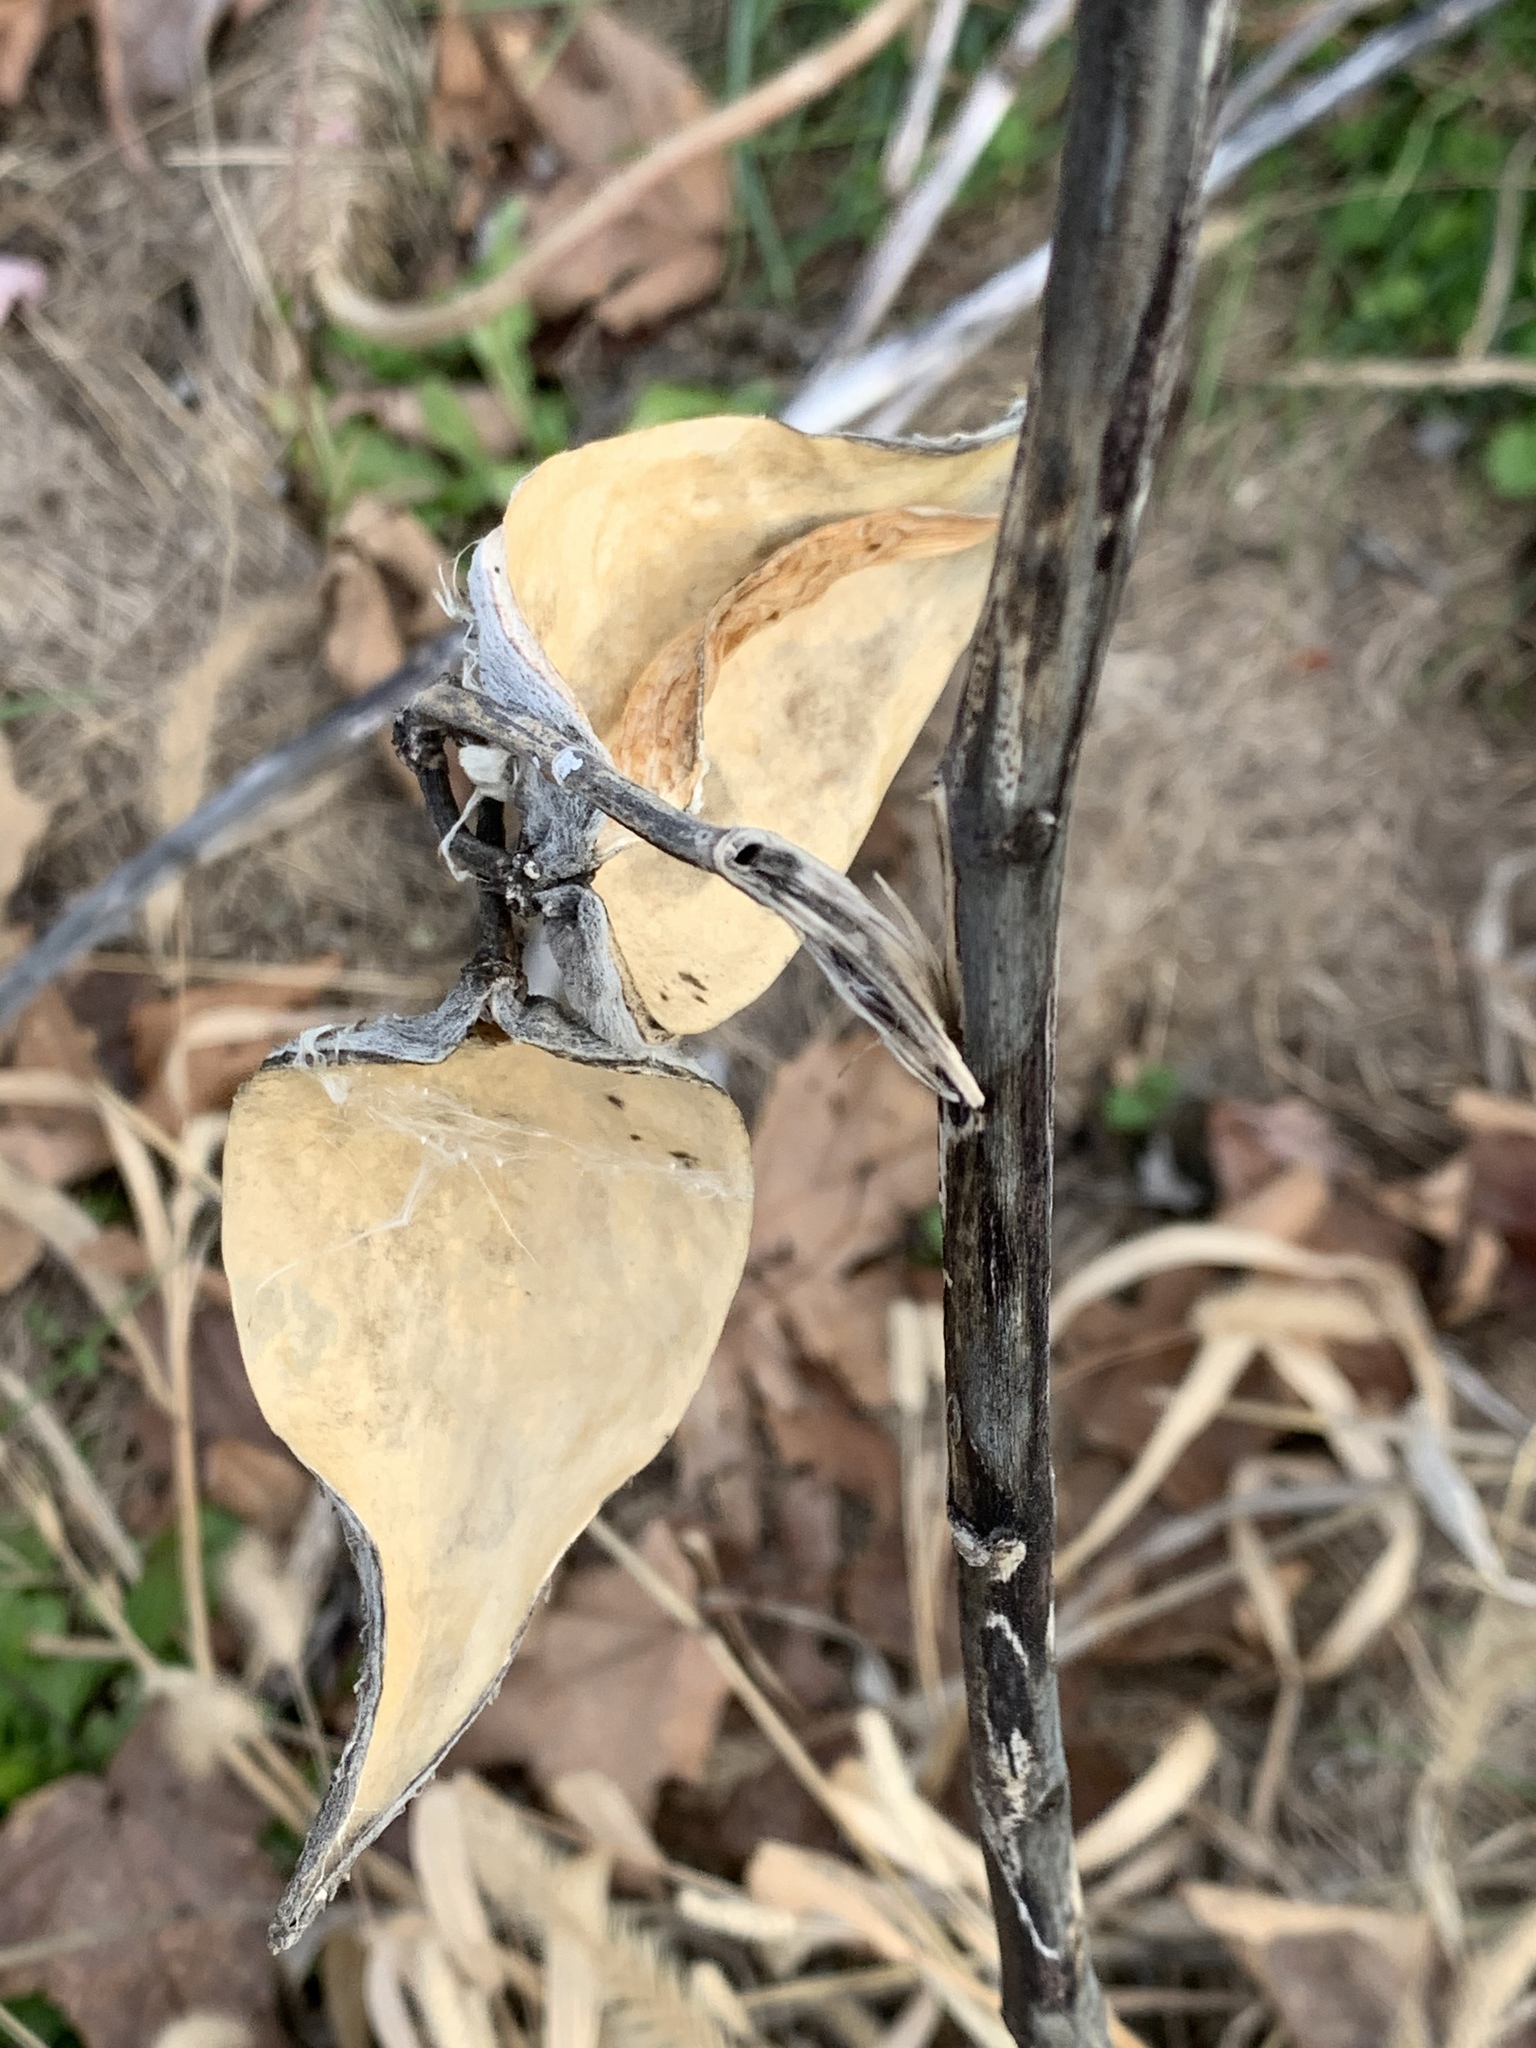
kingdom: Plantae
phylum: Tracheophyta
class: Magnoliopsida
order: Gentianales
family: Apocynaceae
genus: Asclepias
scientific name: Asclepias syriaca
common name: Common milkweed
